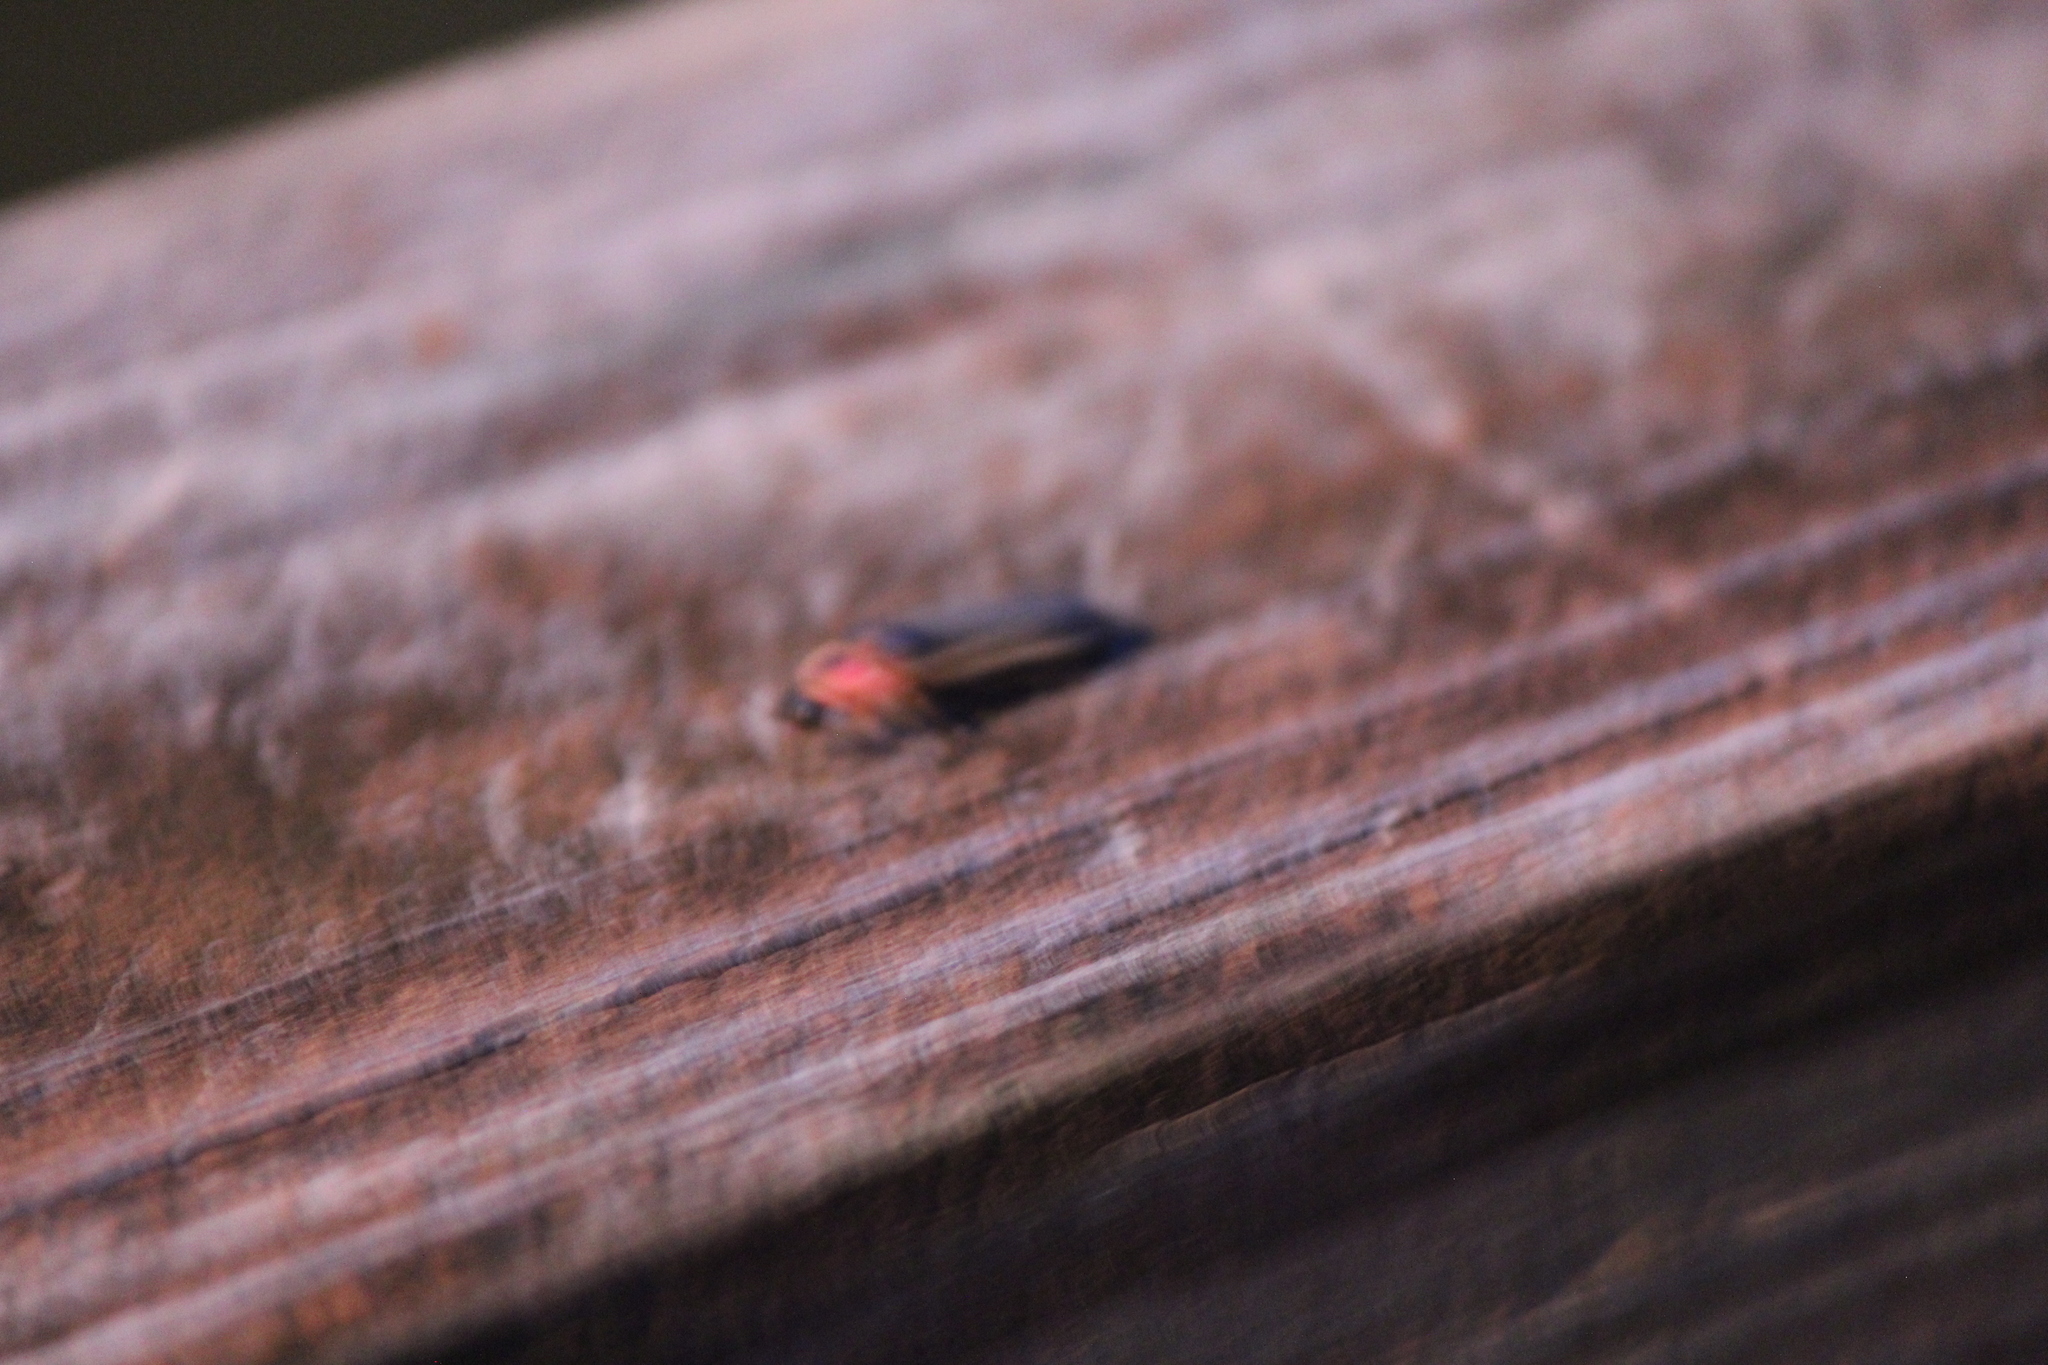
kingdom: Animalia
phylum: Arthropoda
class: Insecta
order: Coleoptera
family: Lampyridae
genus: Photinus
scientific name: Photinus pyralis
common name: Big dipper firefly
